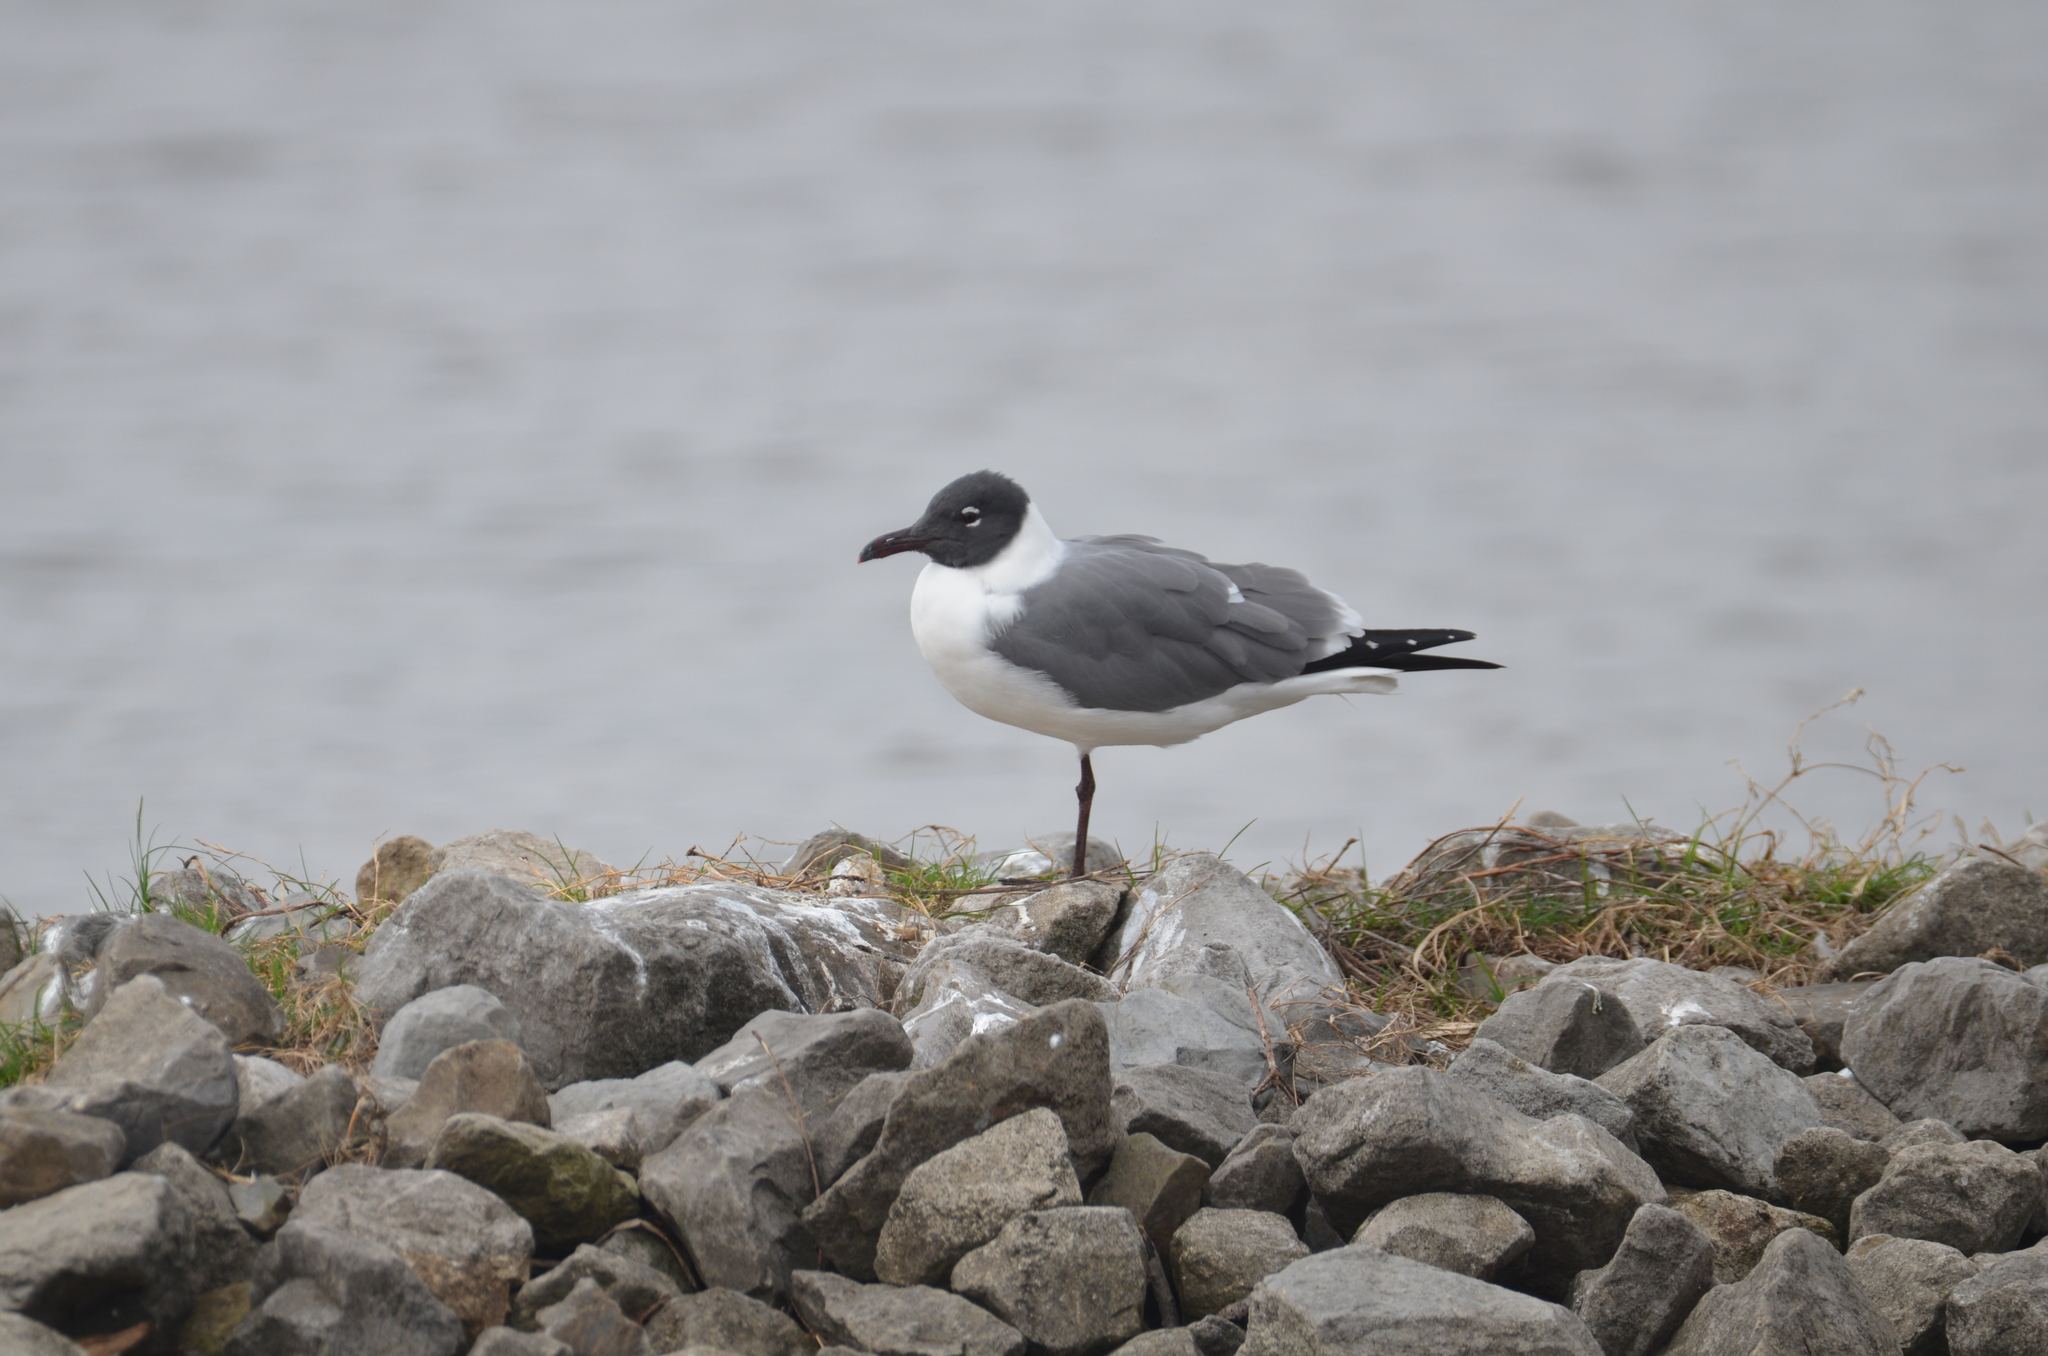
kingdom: Animalia
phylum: Chordata
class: Aves
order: Charadriiformes
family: Laridae
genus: Leucophaeus
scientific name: Leucophaeus atricilla
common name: Laughing gull
